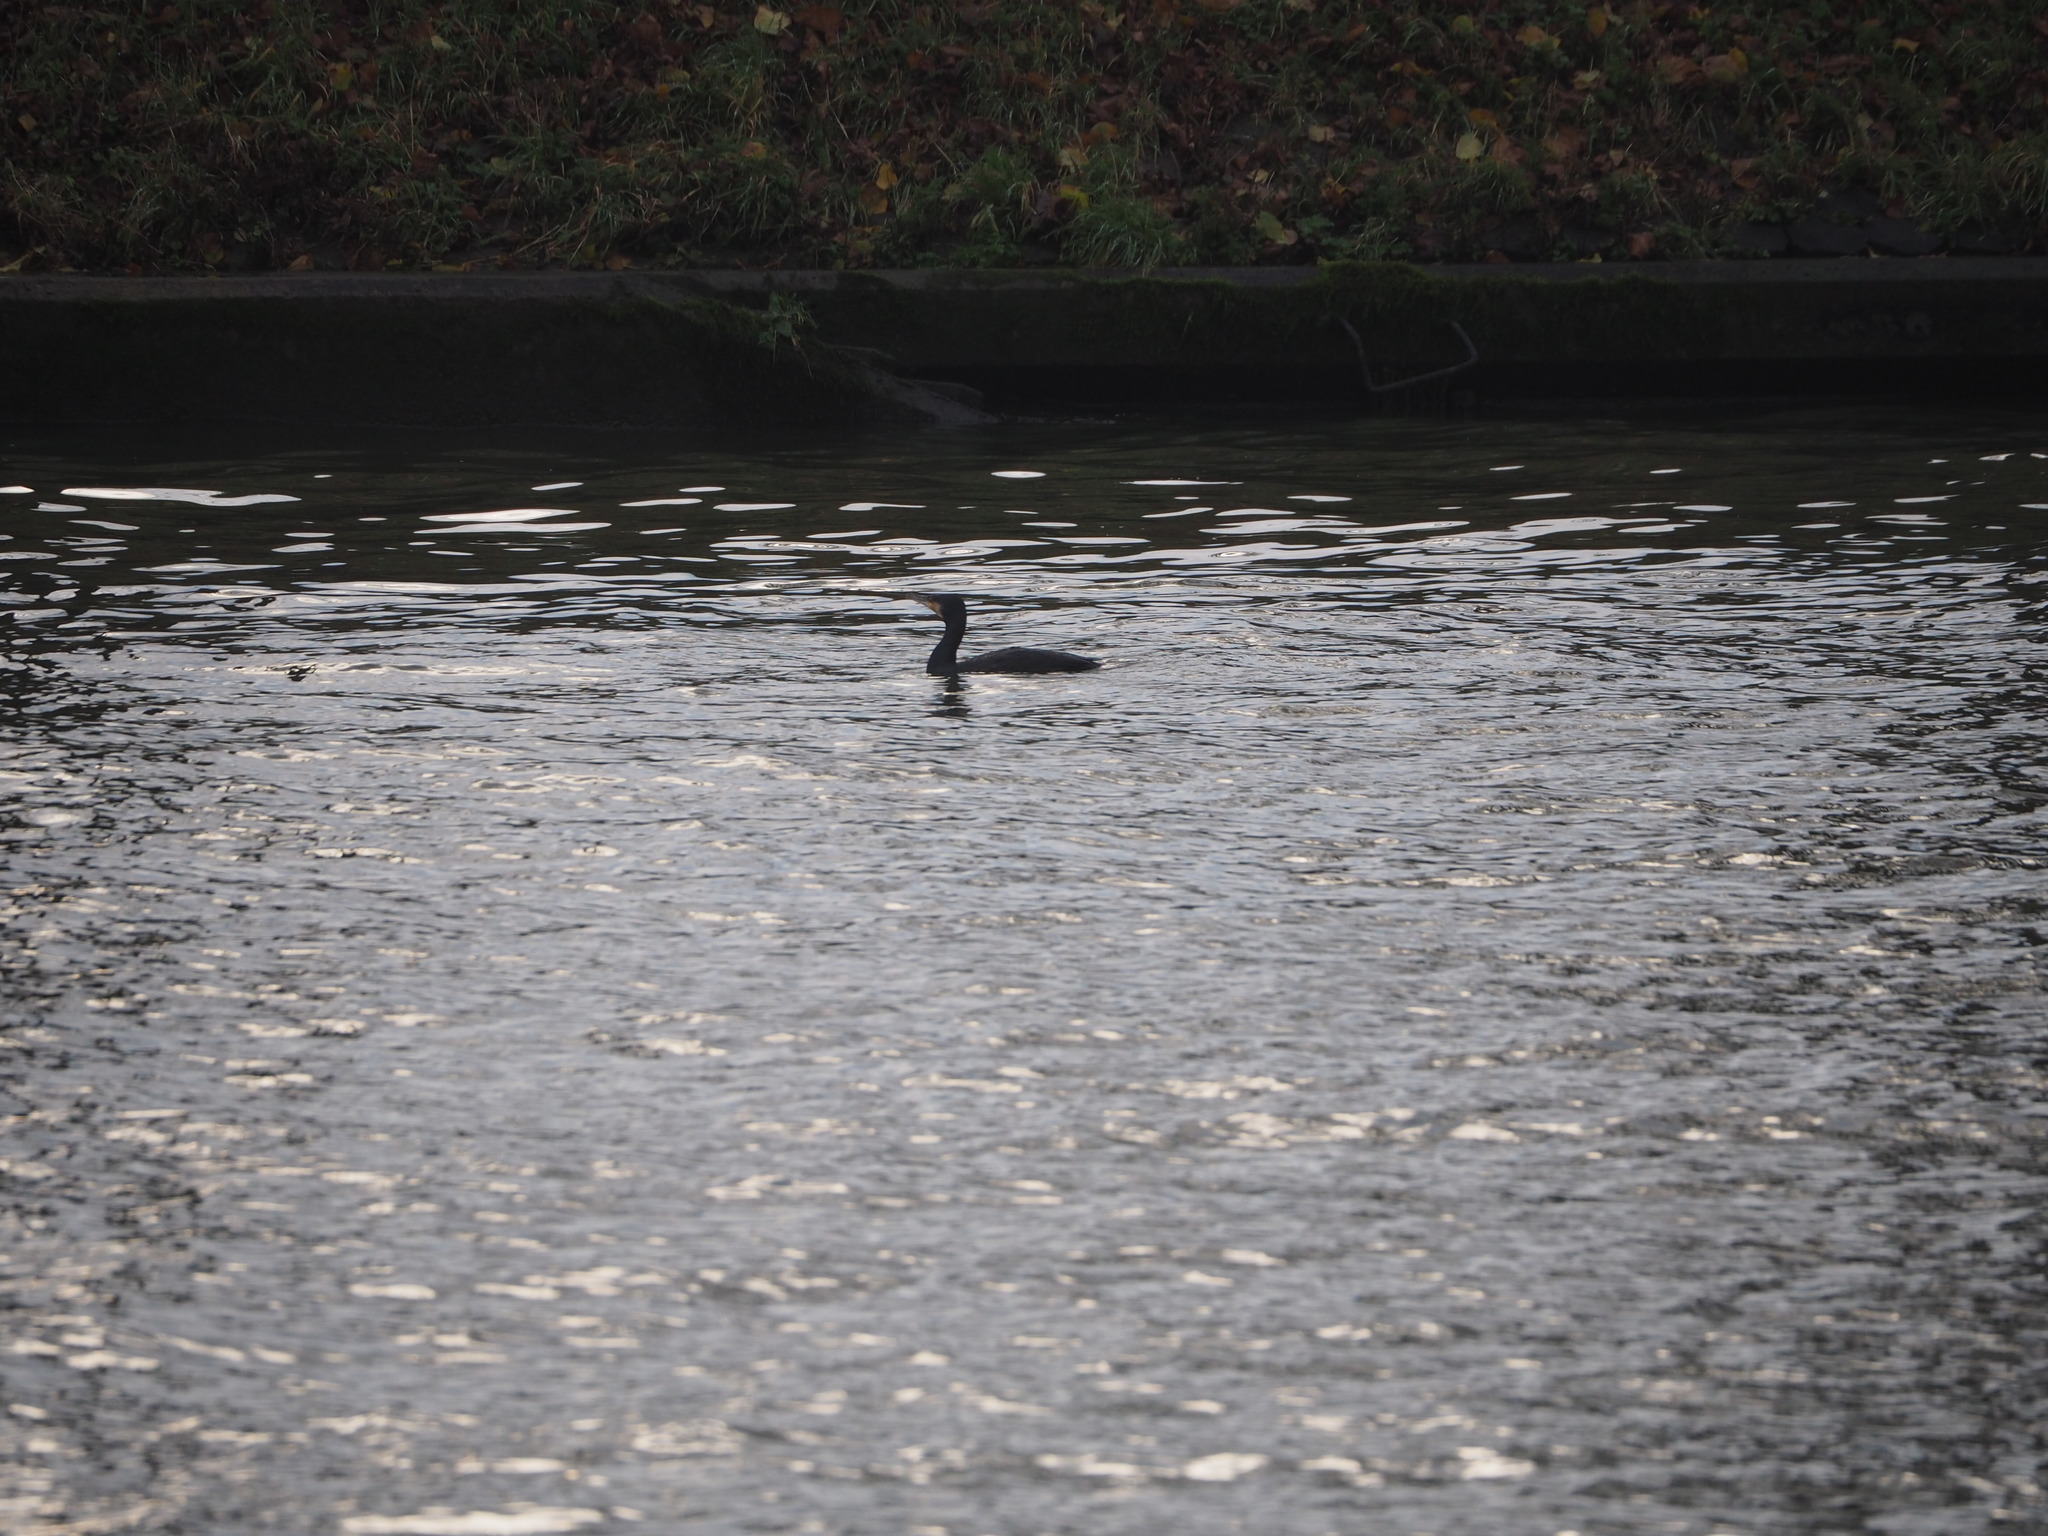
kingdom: Animalia
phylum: Chordata
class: Aves
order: Suliformes
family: Phalacrocoracidae
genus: Phalacrocorax
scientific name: Phalacrocorax carbo
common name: Great cormorant
